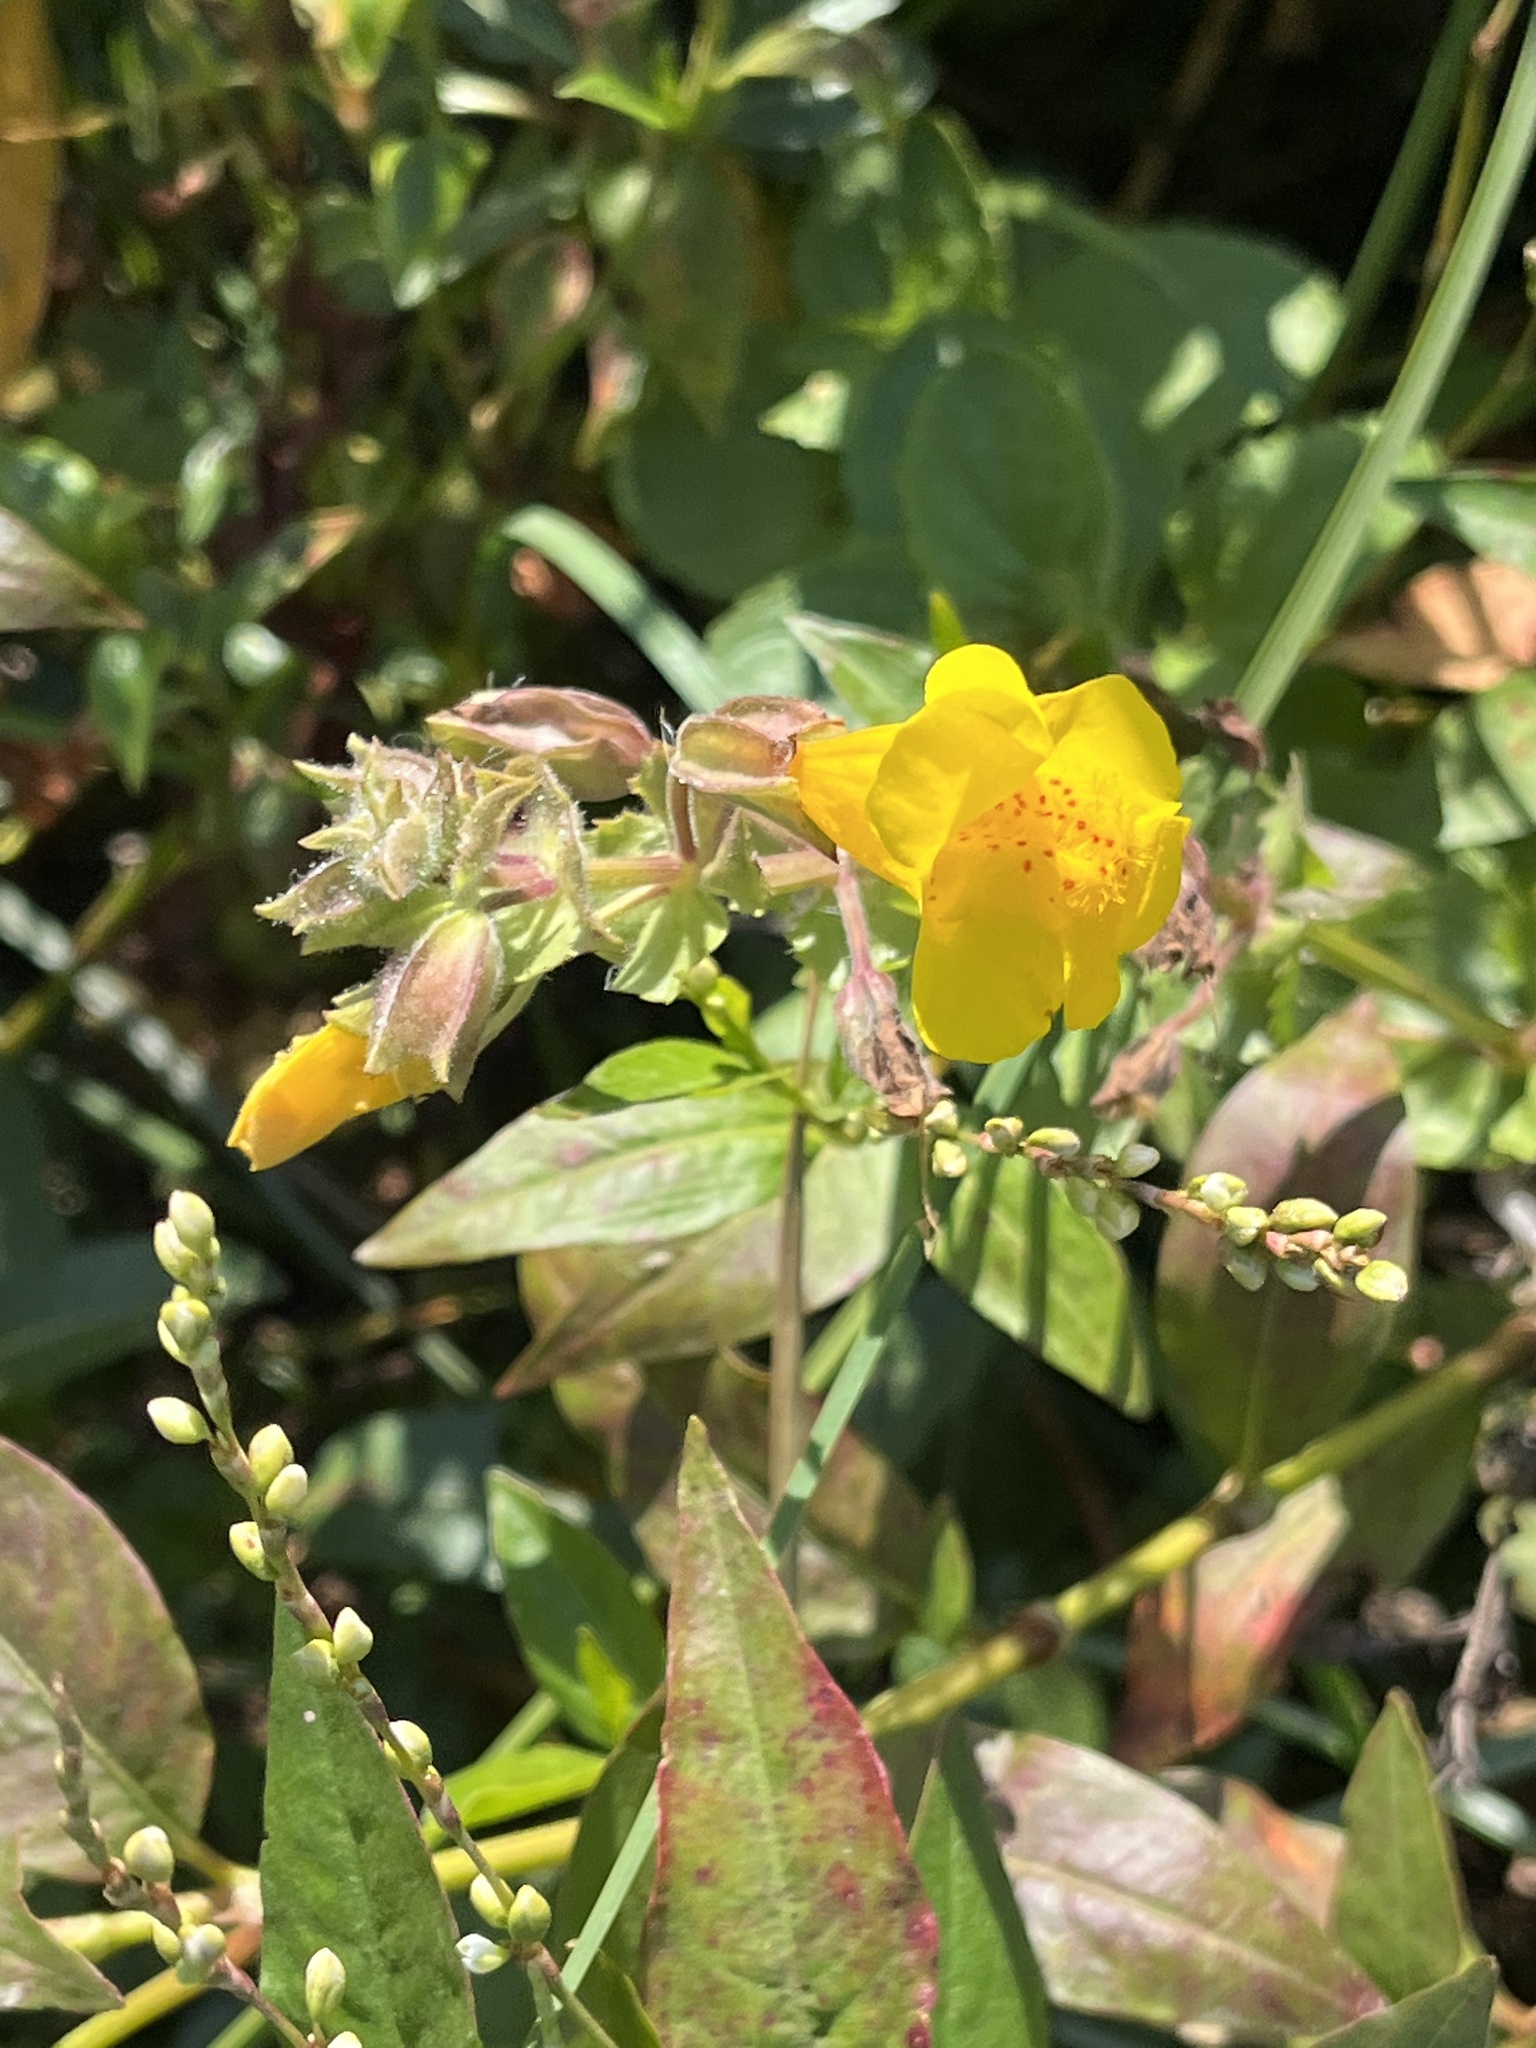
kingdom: Plantae
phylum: Tracheophyta
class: Magnoliopsida
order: Lamiales
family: Phrymaceae
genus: Erythranthe
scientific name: Erythranthe grandis
